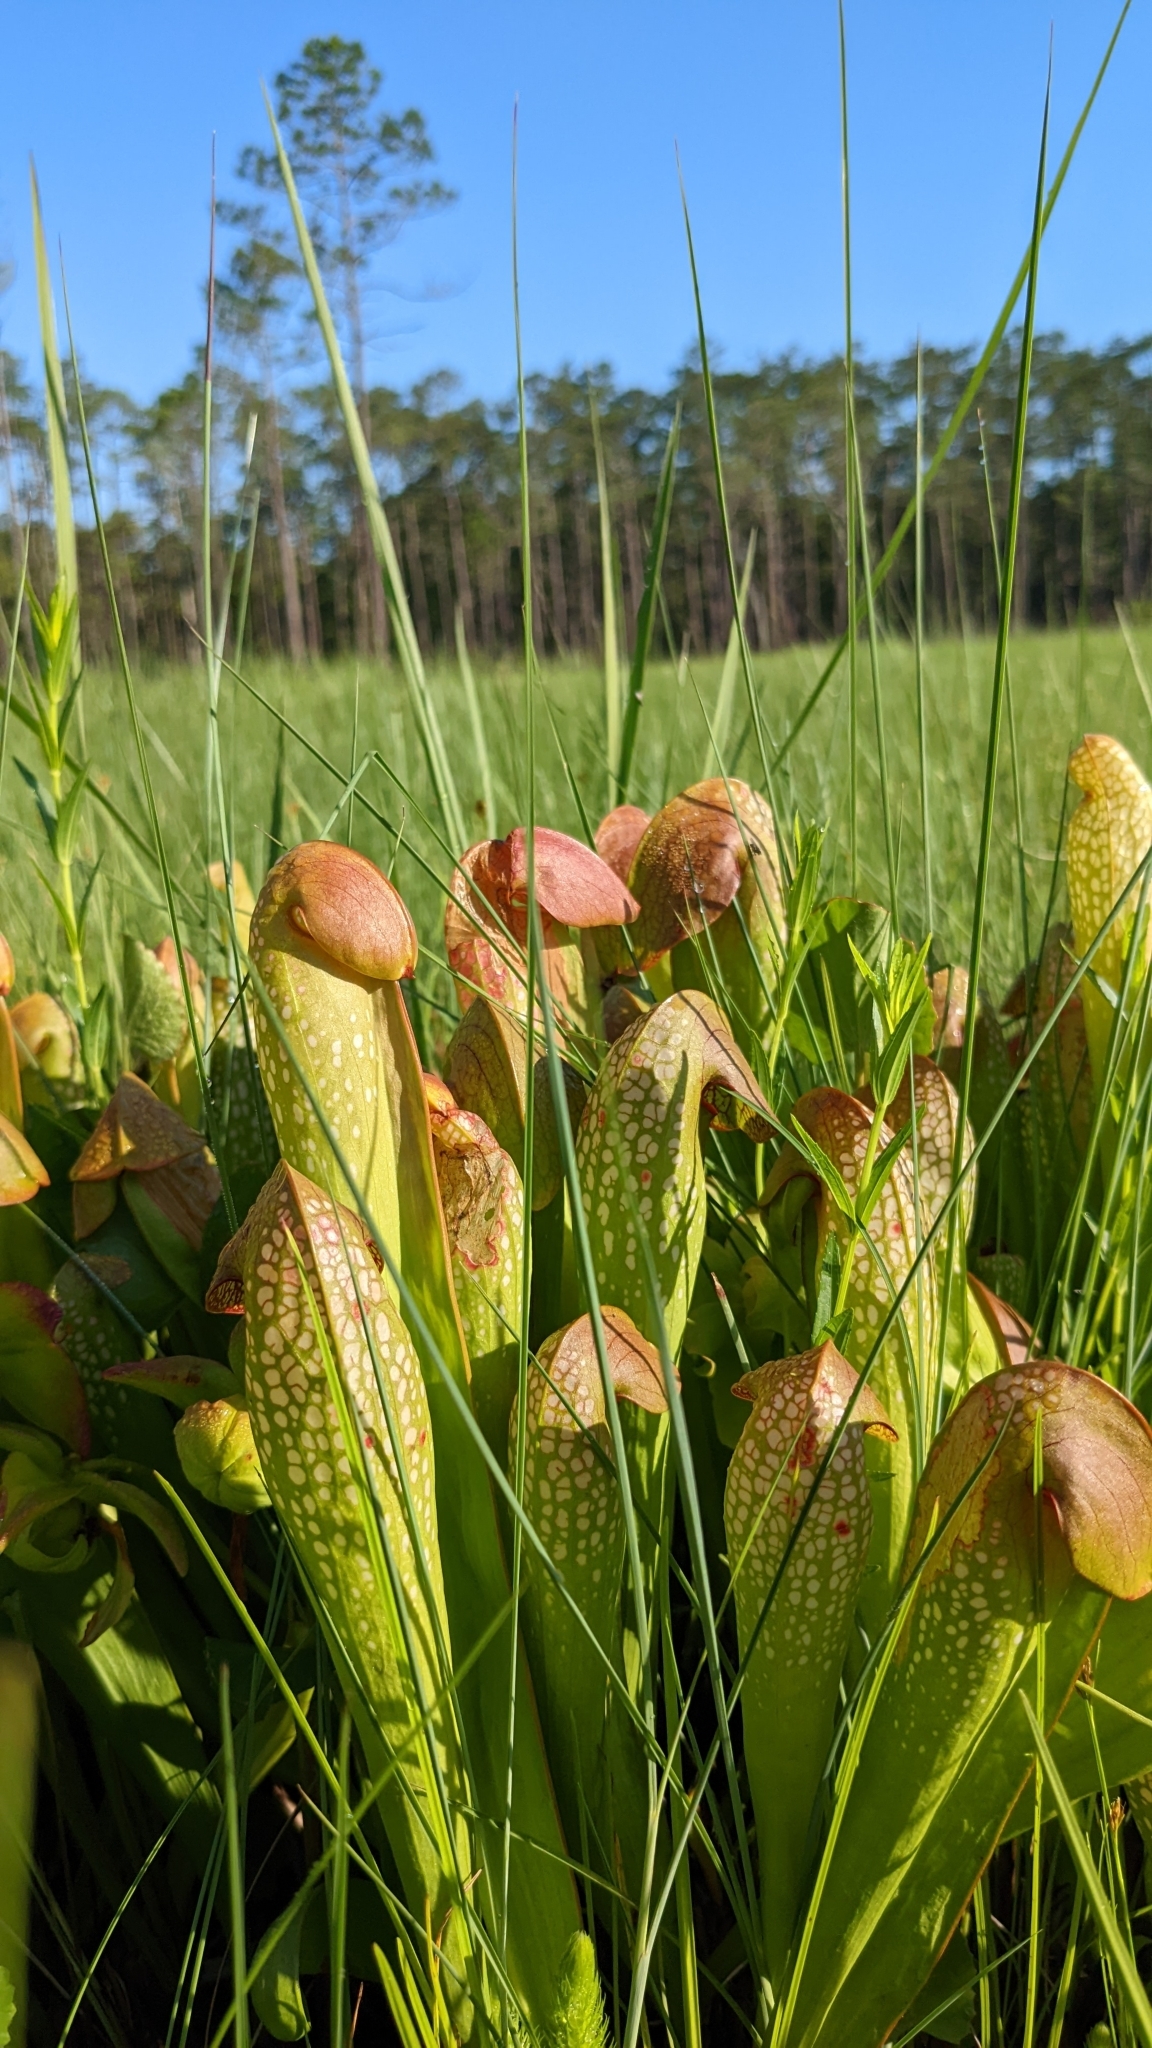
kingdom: Plantae
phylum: Tracheophyta
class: Magnoliopsida
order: Ericales
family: Sarraceniaceae
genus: Sarracenia
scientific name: Sarracenia minor
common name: Rainhat-trumpet
